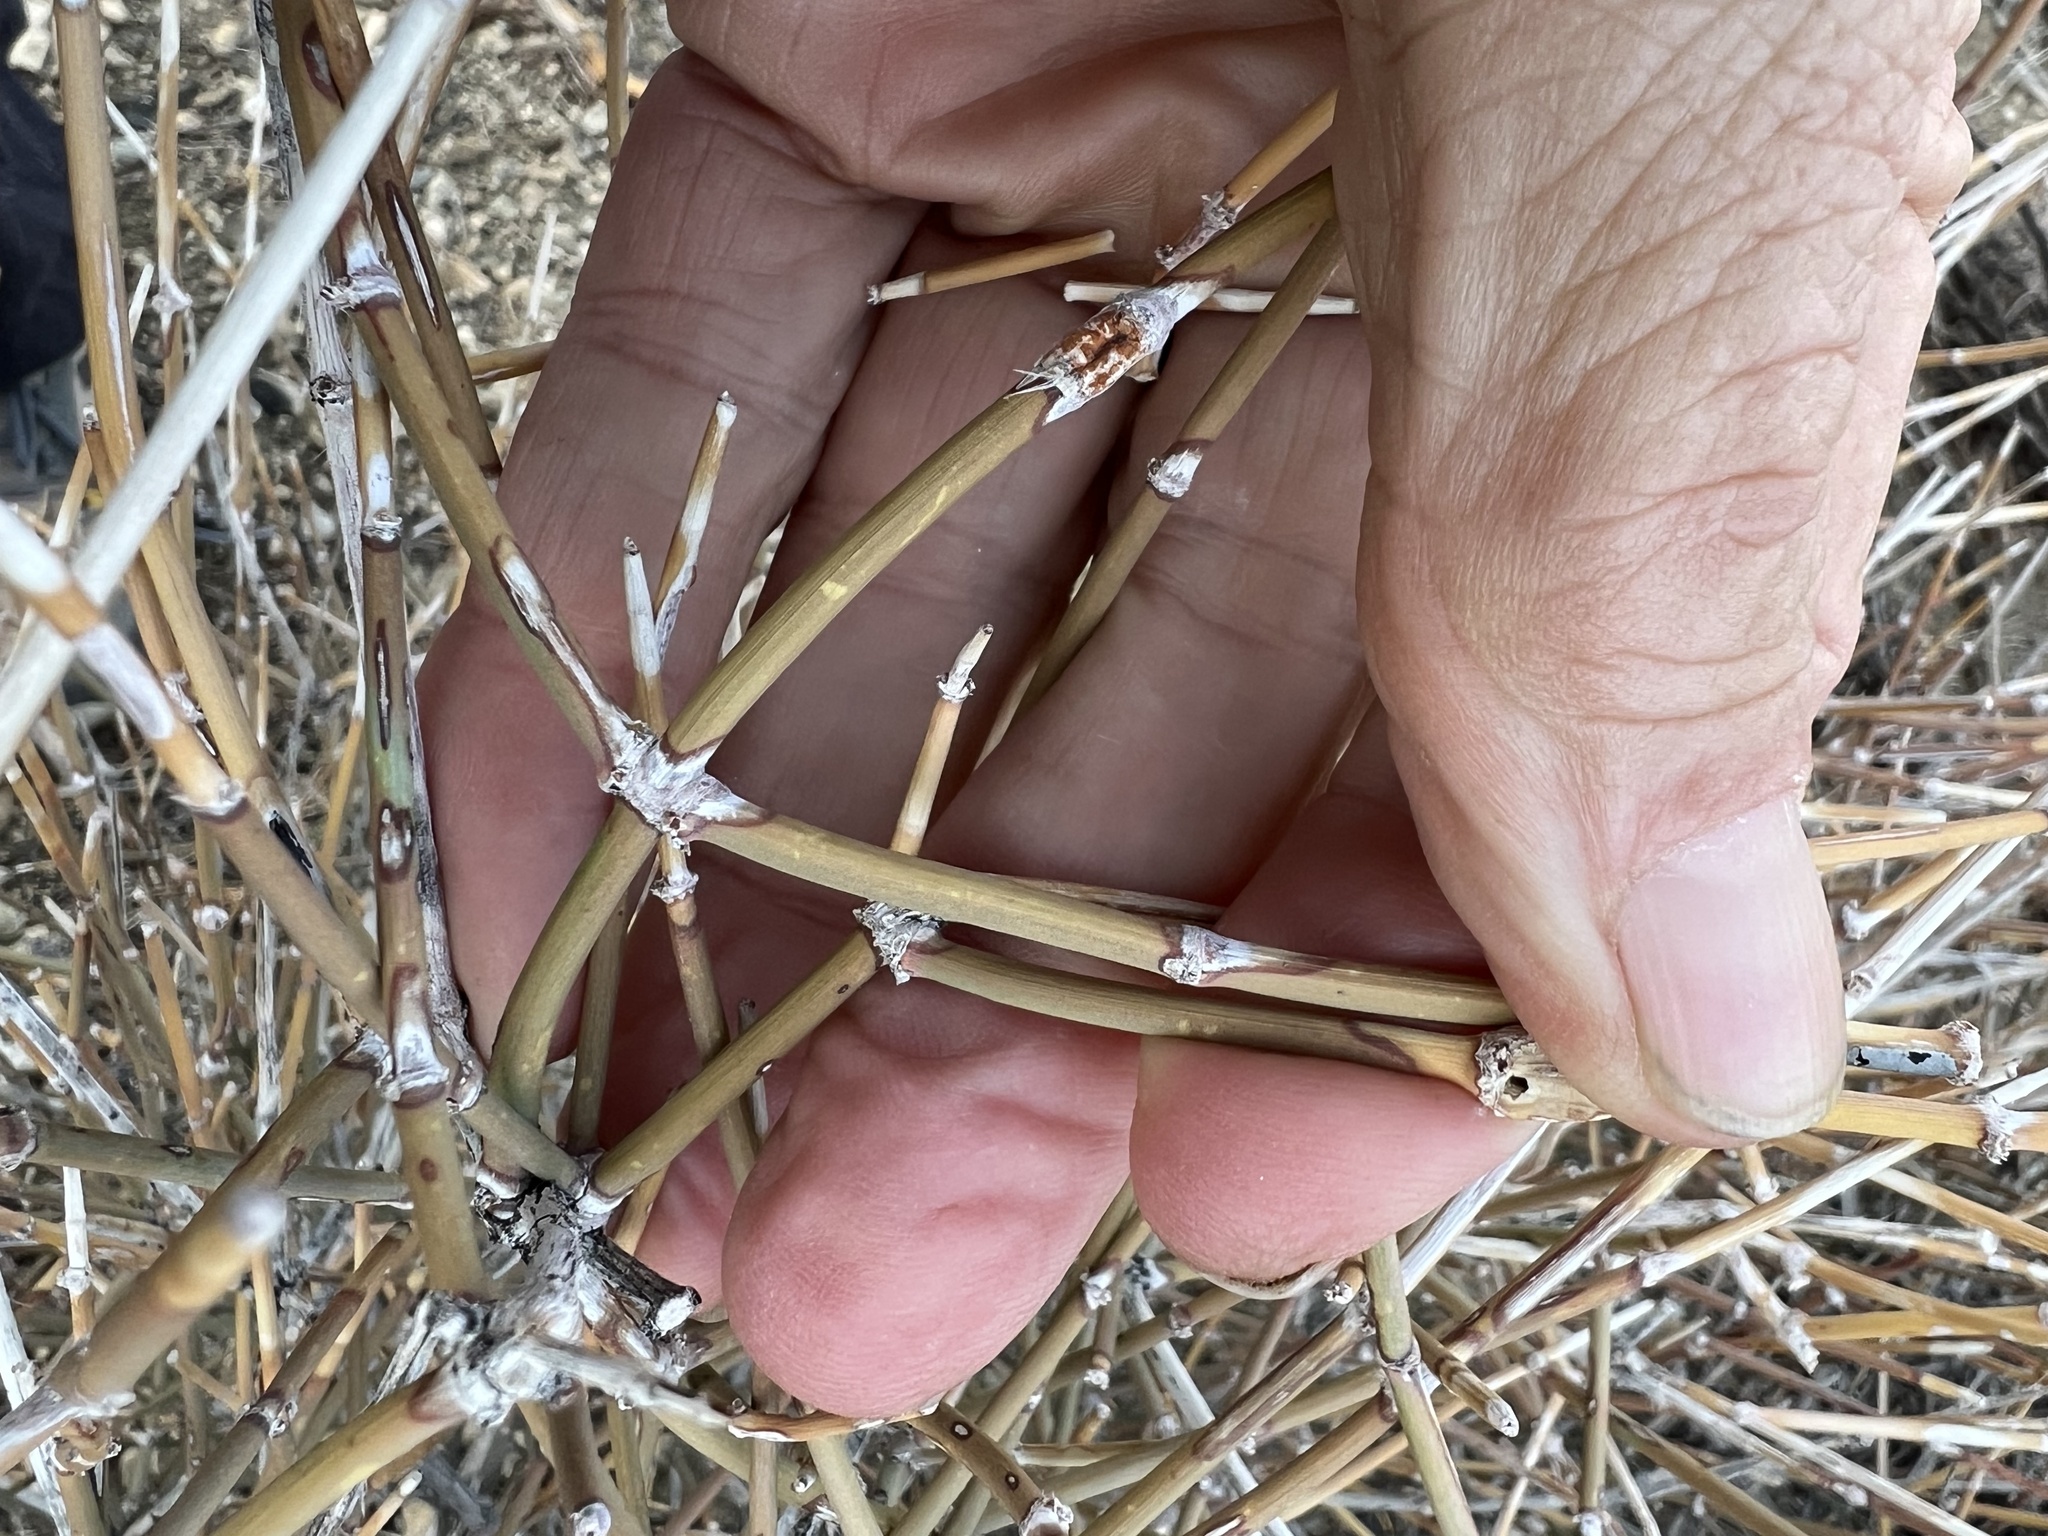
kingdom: Plantae
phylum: Tracheophyta
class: Gnetopsida
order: Ephedrales
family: Ephedraceae
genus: Ephedra
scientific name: Ephedra nevadensis
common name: Gray ephedra
